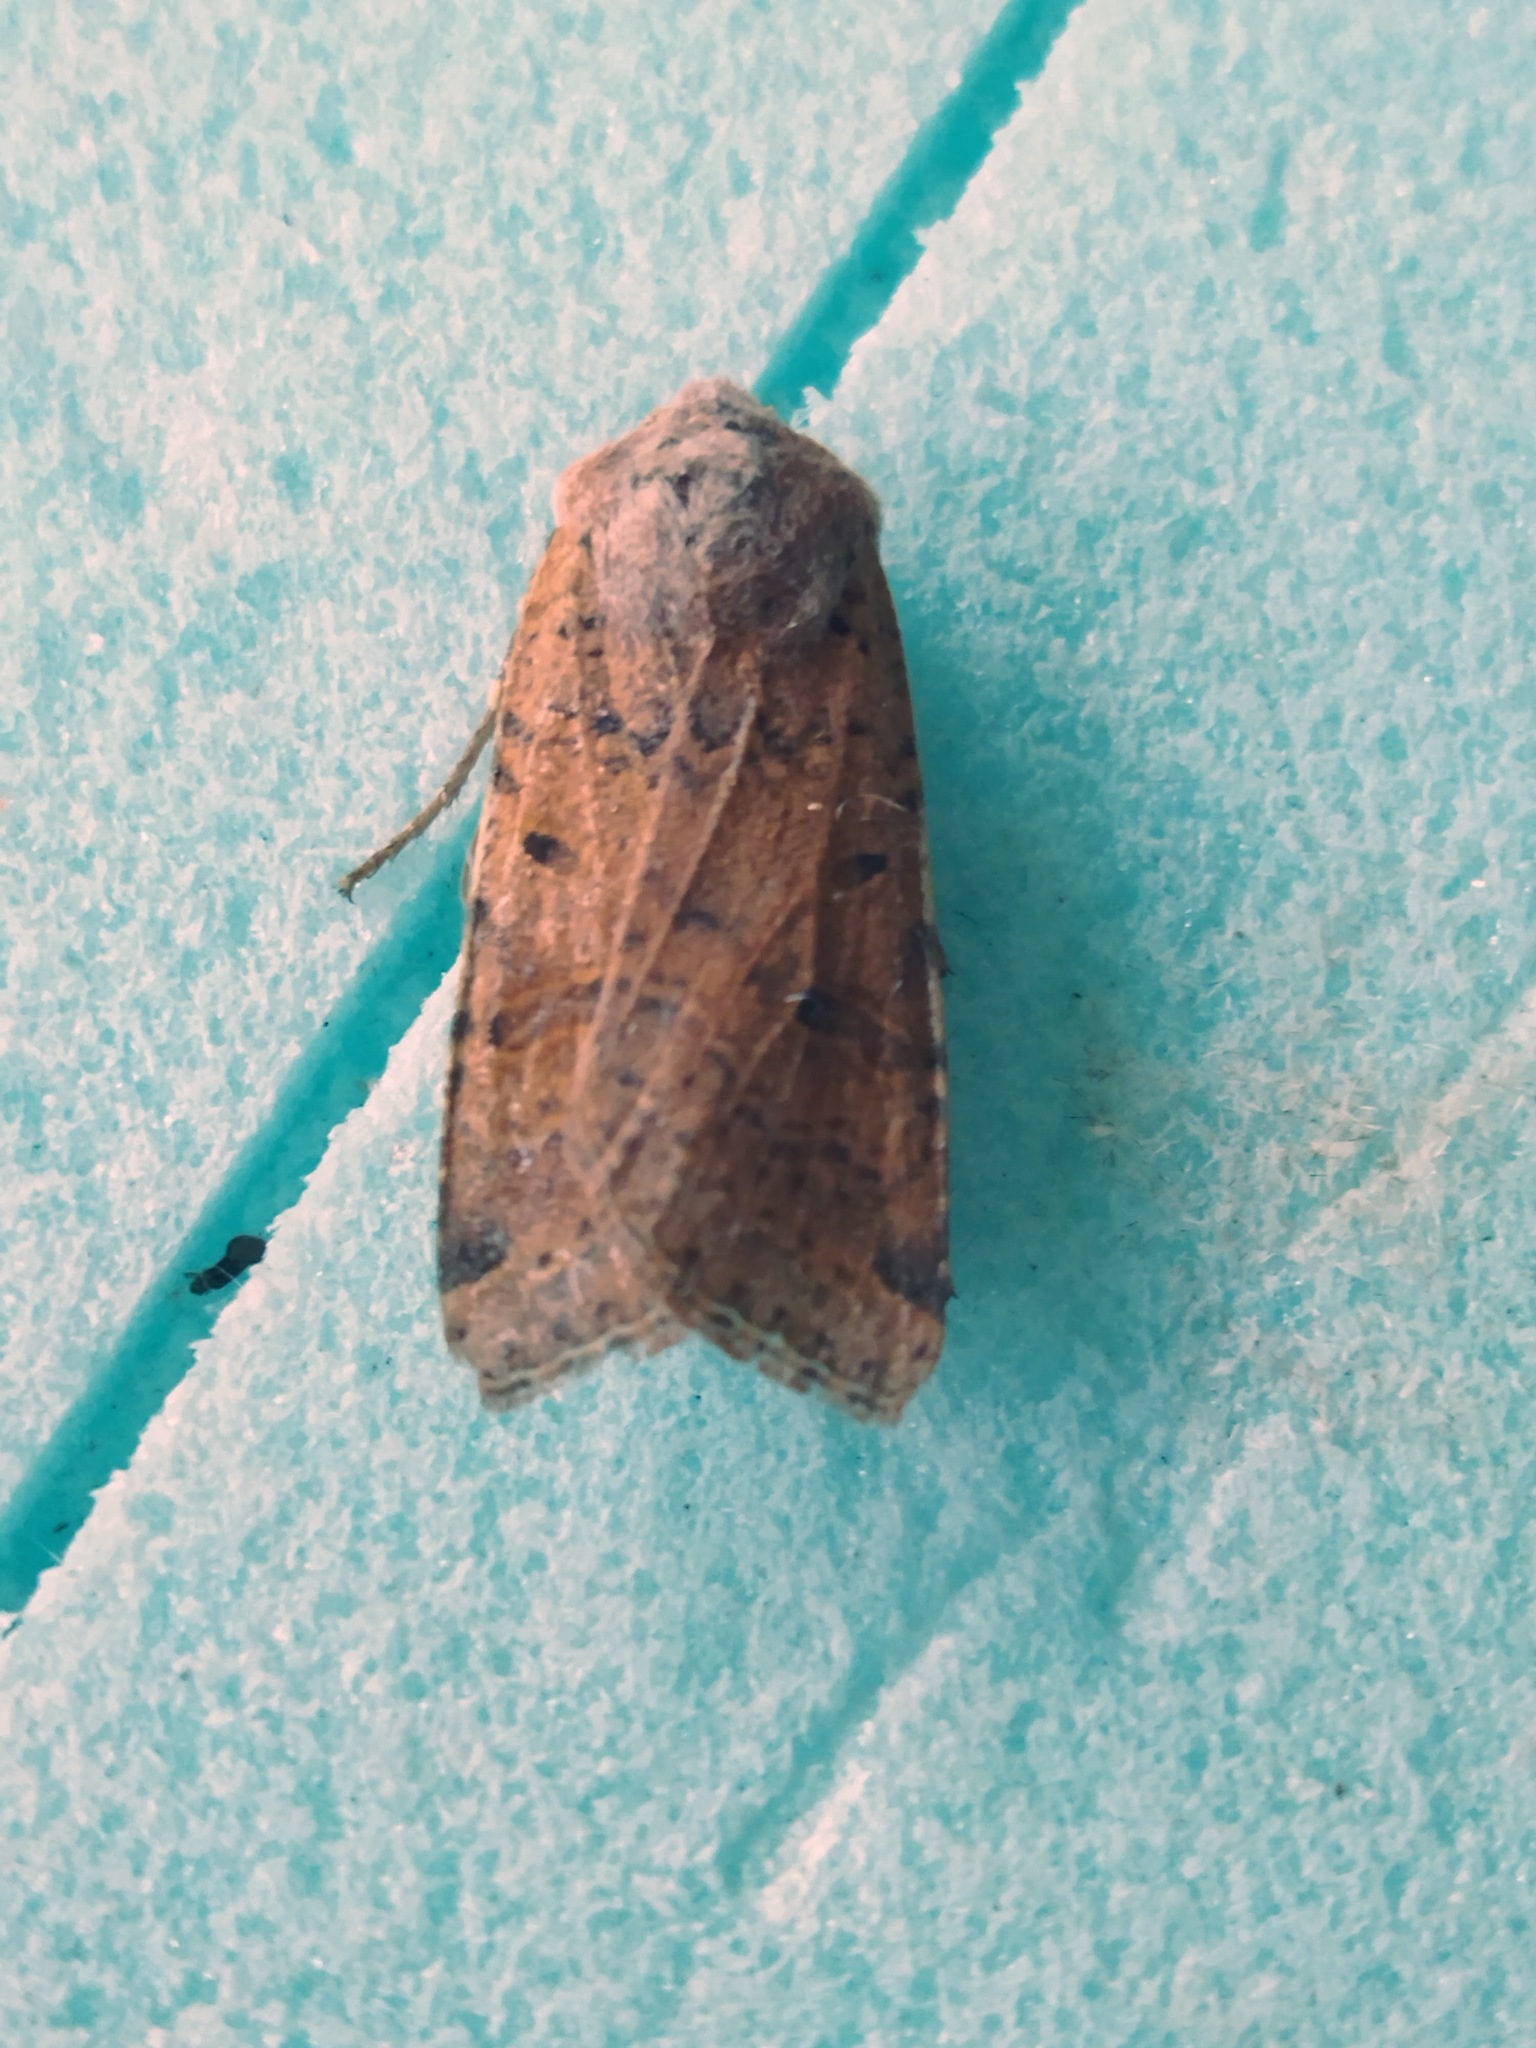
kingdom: Animalia
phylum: Arthropoda
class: Insecta
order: Lepidoptera
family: Noctuidae
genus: Agrochola
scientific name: Agrochola lychnidis
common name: Beaded chestnut
